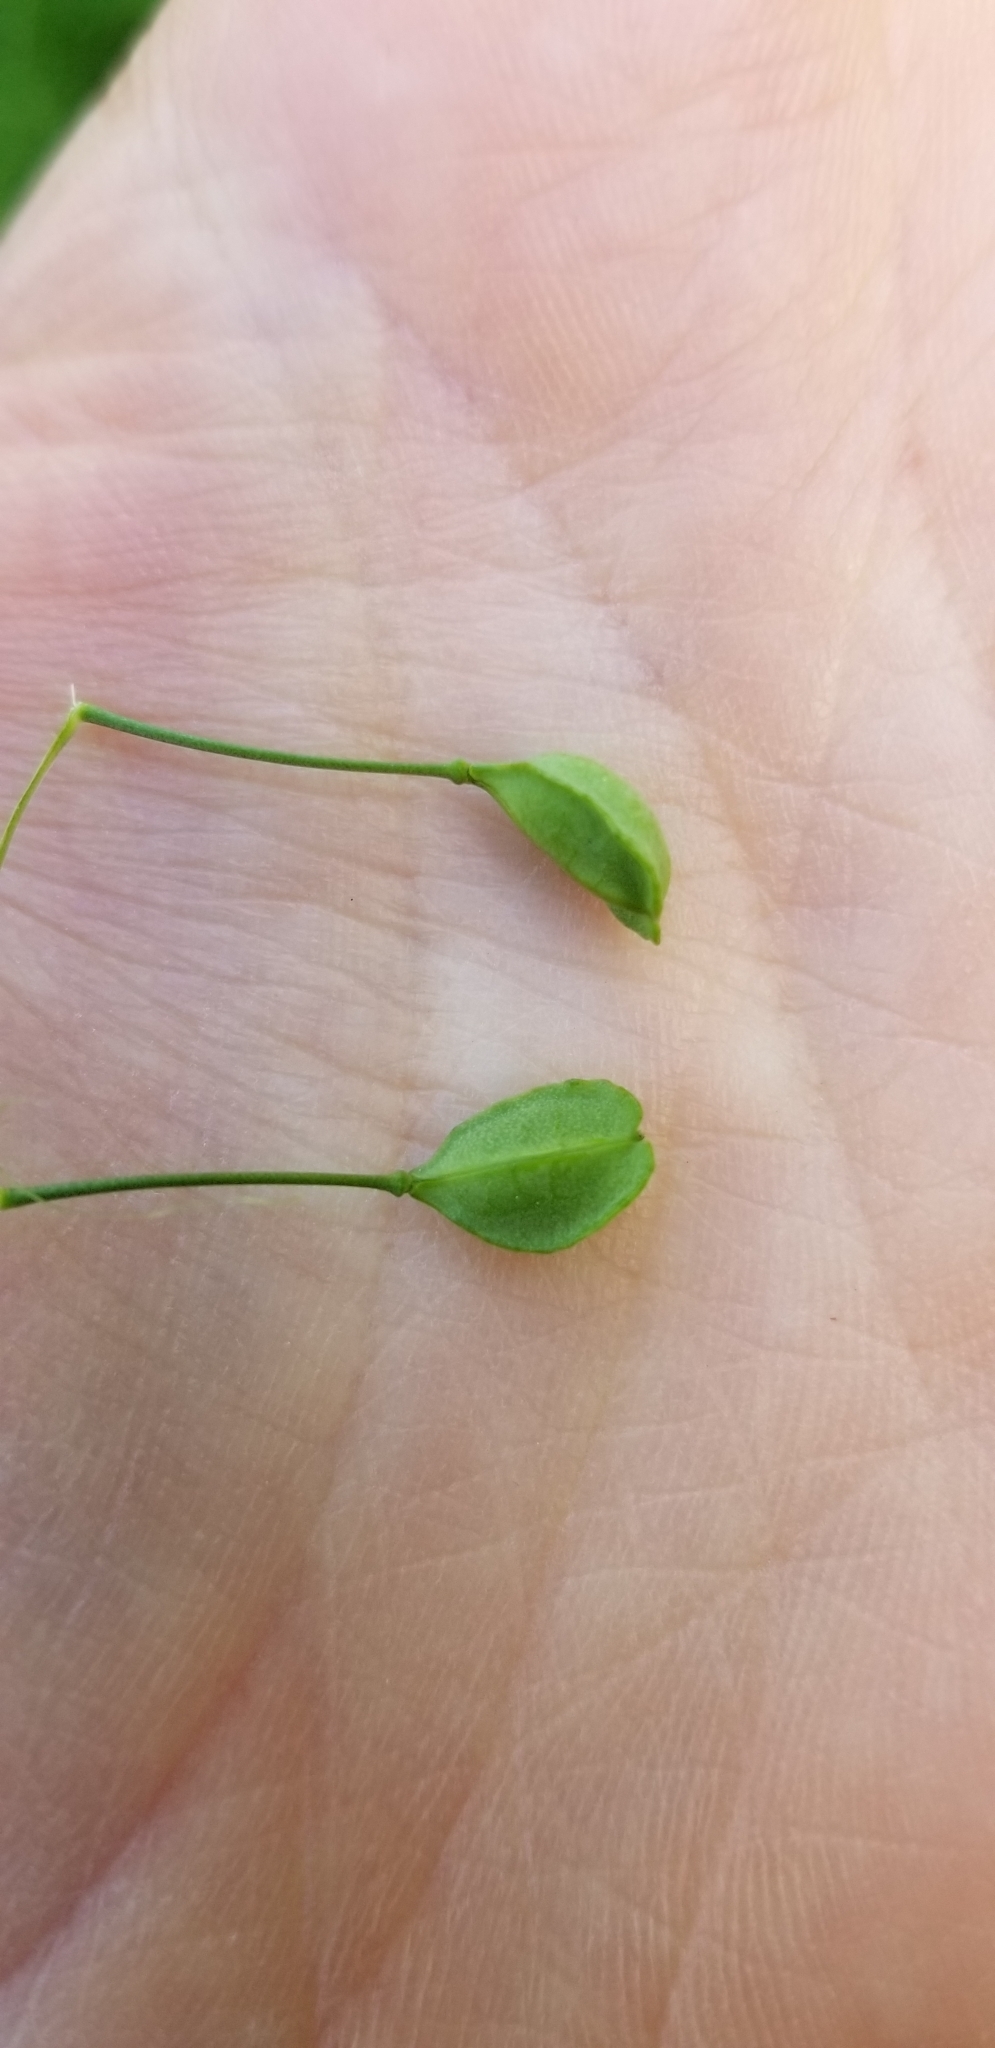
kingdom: Plantae
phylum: Tracheophyta
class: Magnoliopsida
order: Brassicales
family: Brassicaceae
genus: Mummenhoffia
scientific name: Mummenhoffia alliacea
